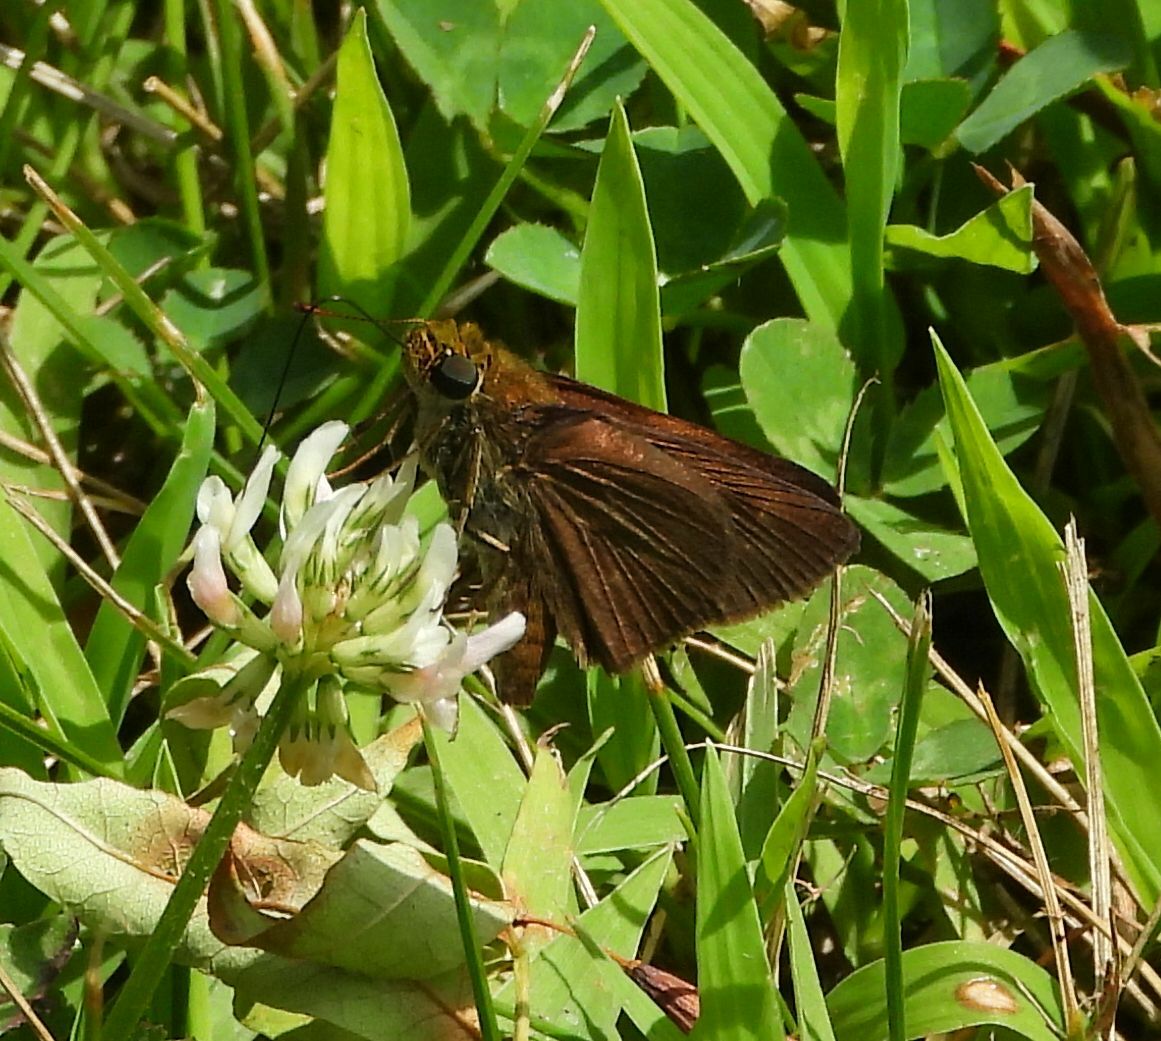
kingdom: Animalia
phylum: Arthropoda
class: Insecta
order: Lepidoptera
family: Hesperiidae
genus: Euphyes
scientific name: Euphyes vestris
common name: Dun skipper
